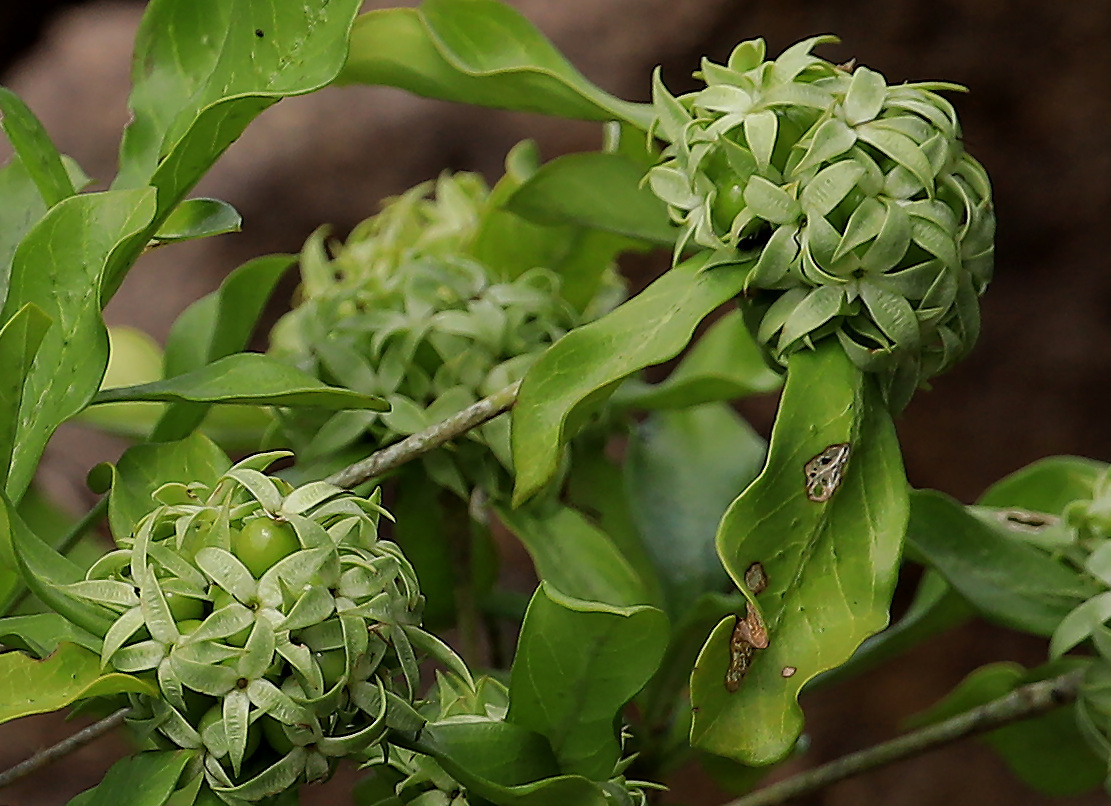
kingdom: Plantae
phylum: Tracheophyta
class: Magnoliopsida
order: Gentianales
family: Rubiaceae
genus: Pavetta
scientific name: Pavetta catophylla
